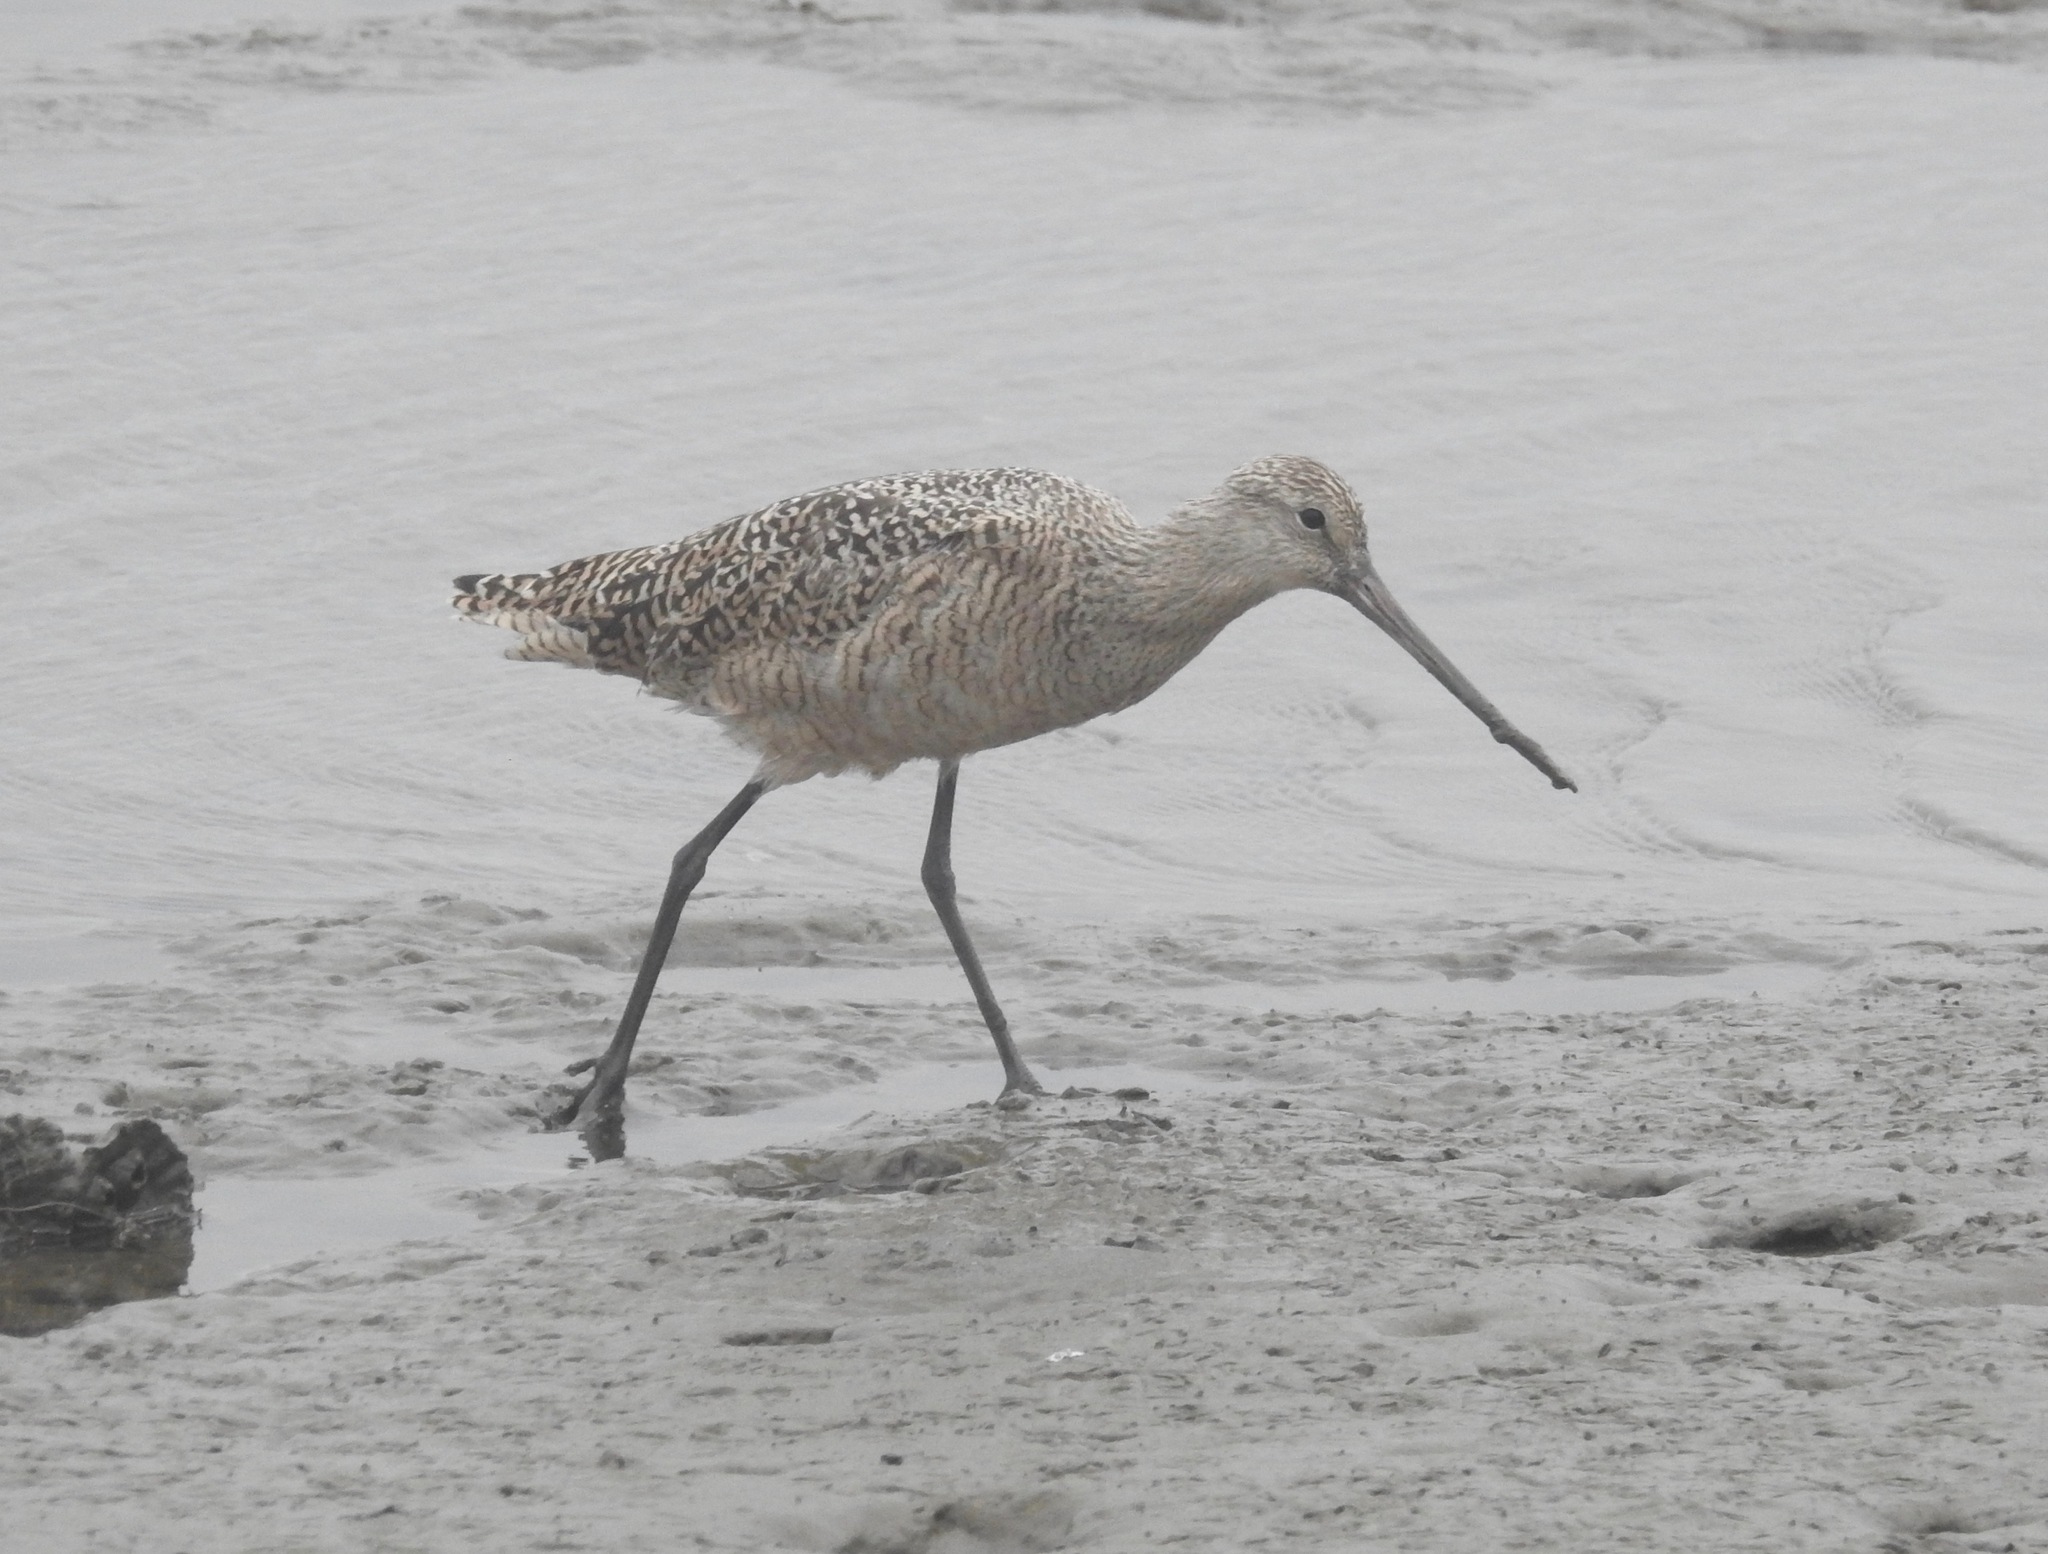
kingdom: Animalia
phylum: Chordata
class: Aves
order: Charadriiformes
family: Scolopacidae
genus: Limosa
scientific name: Limosa fedoa
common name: Marbled godwit
